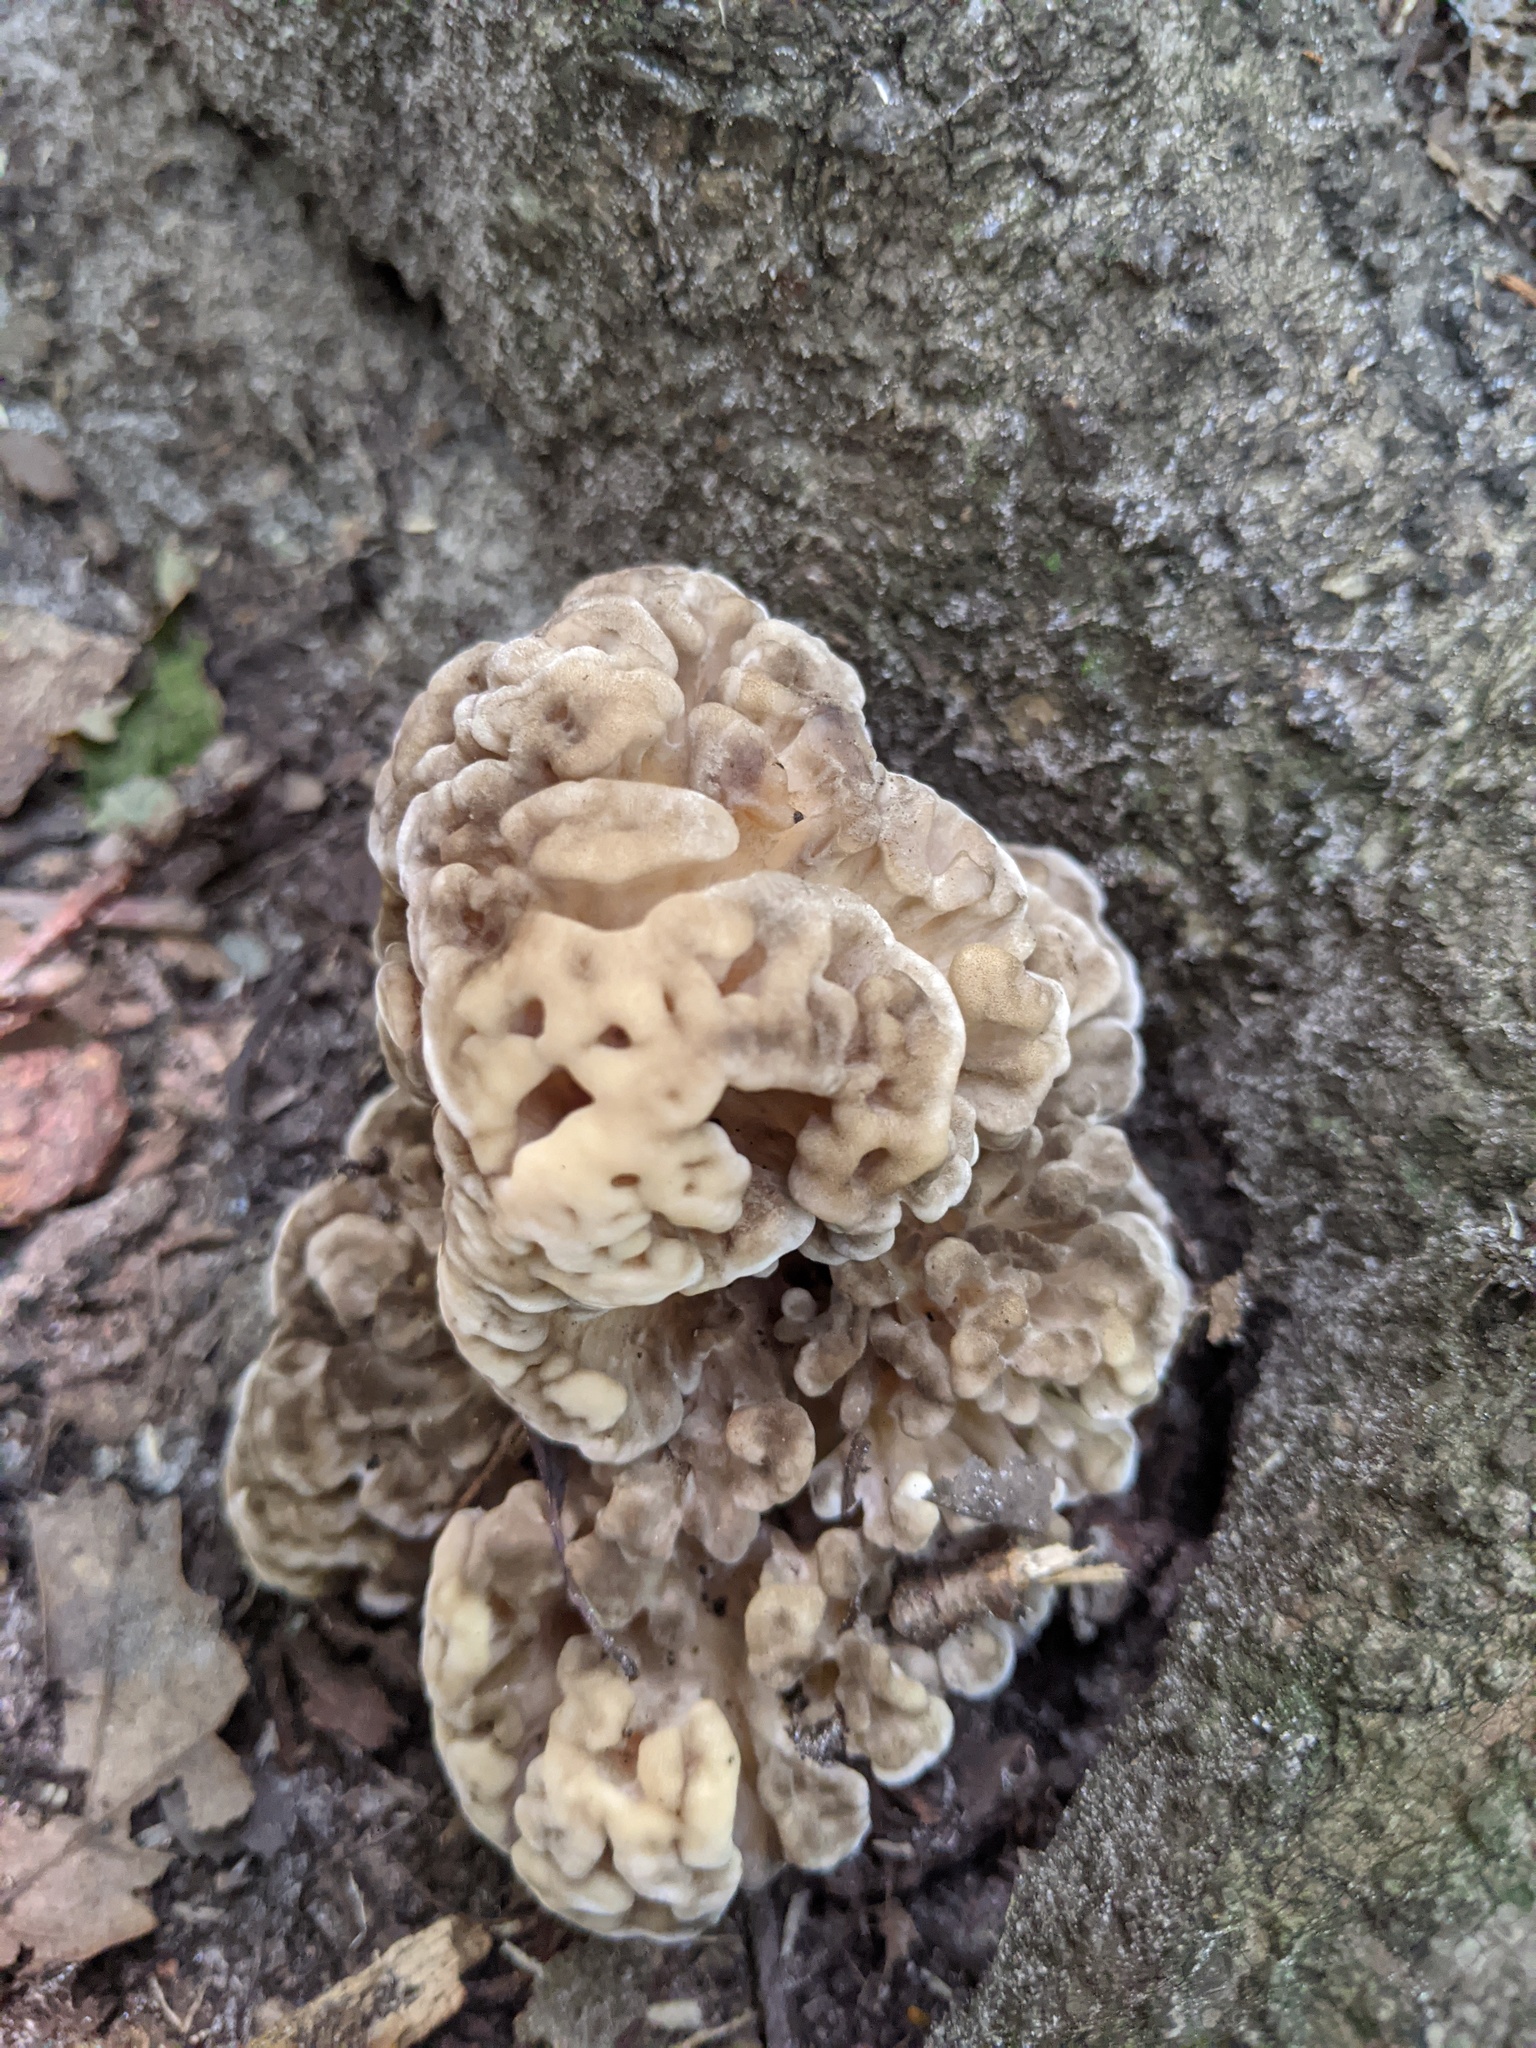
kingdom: Fungi
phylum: Basidiomycota
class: Agaricomycetes
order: Polyporales
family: Grifolaceae
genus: Grifola
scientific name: Grifola frondosa
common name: Hen of the woods
